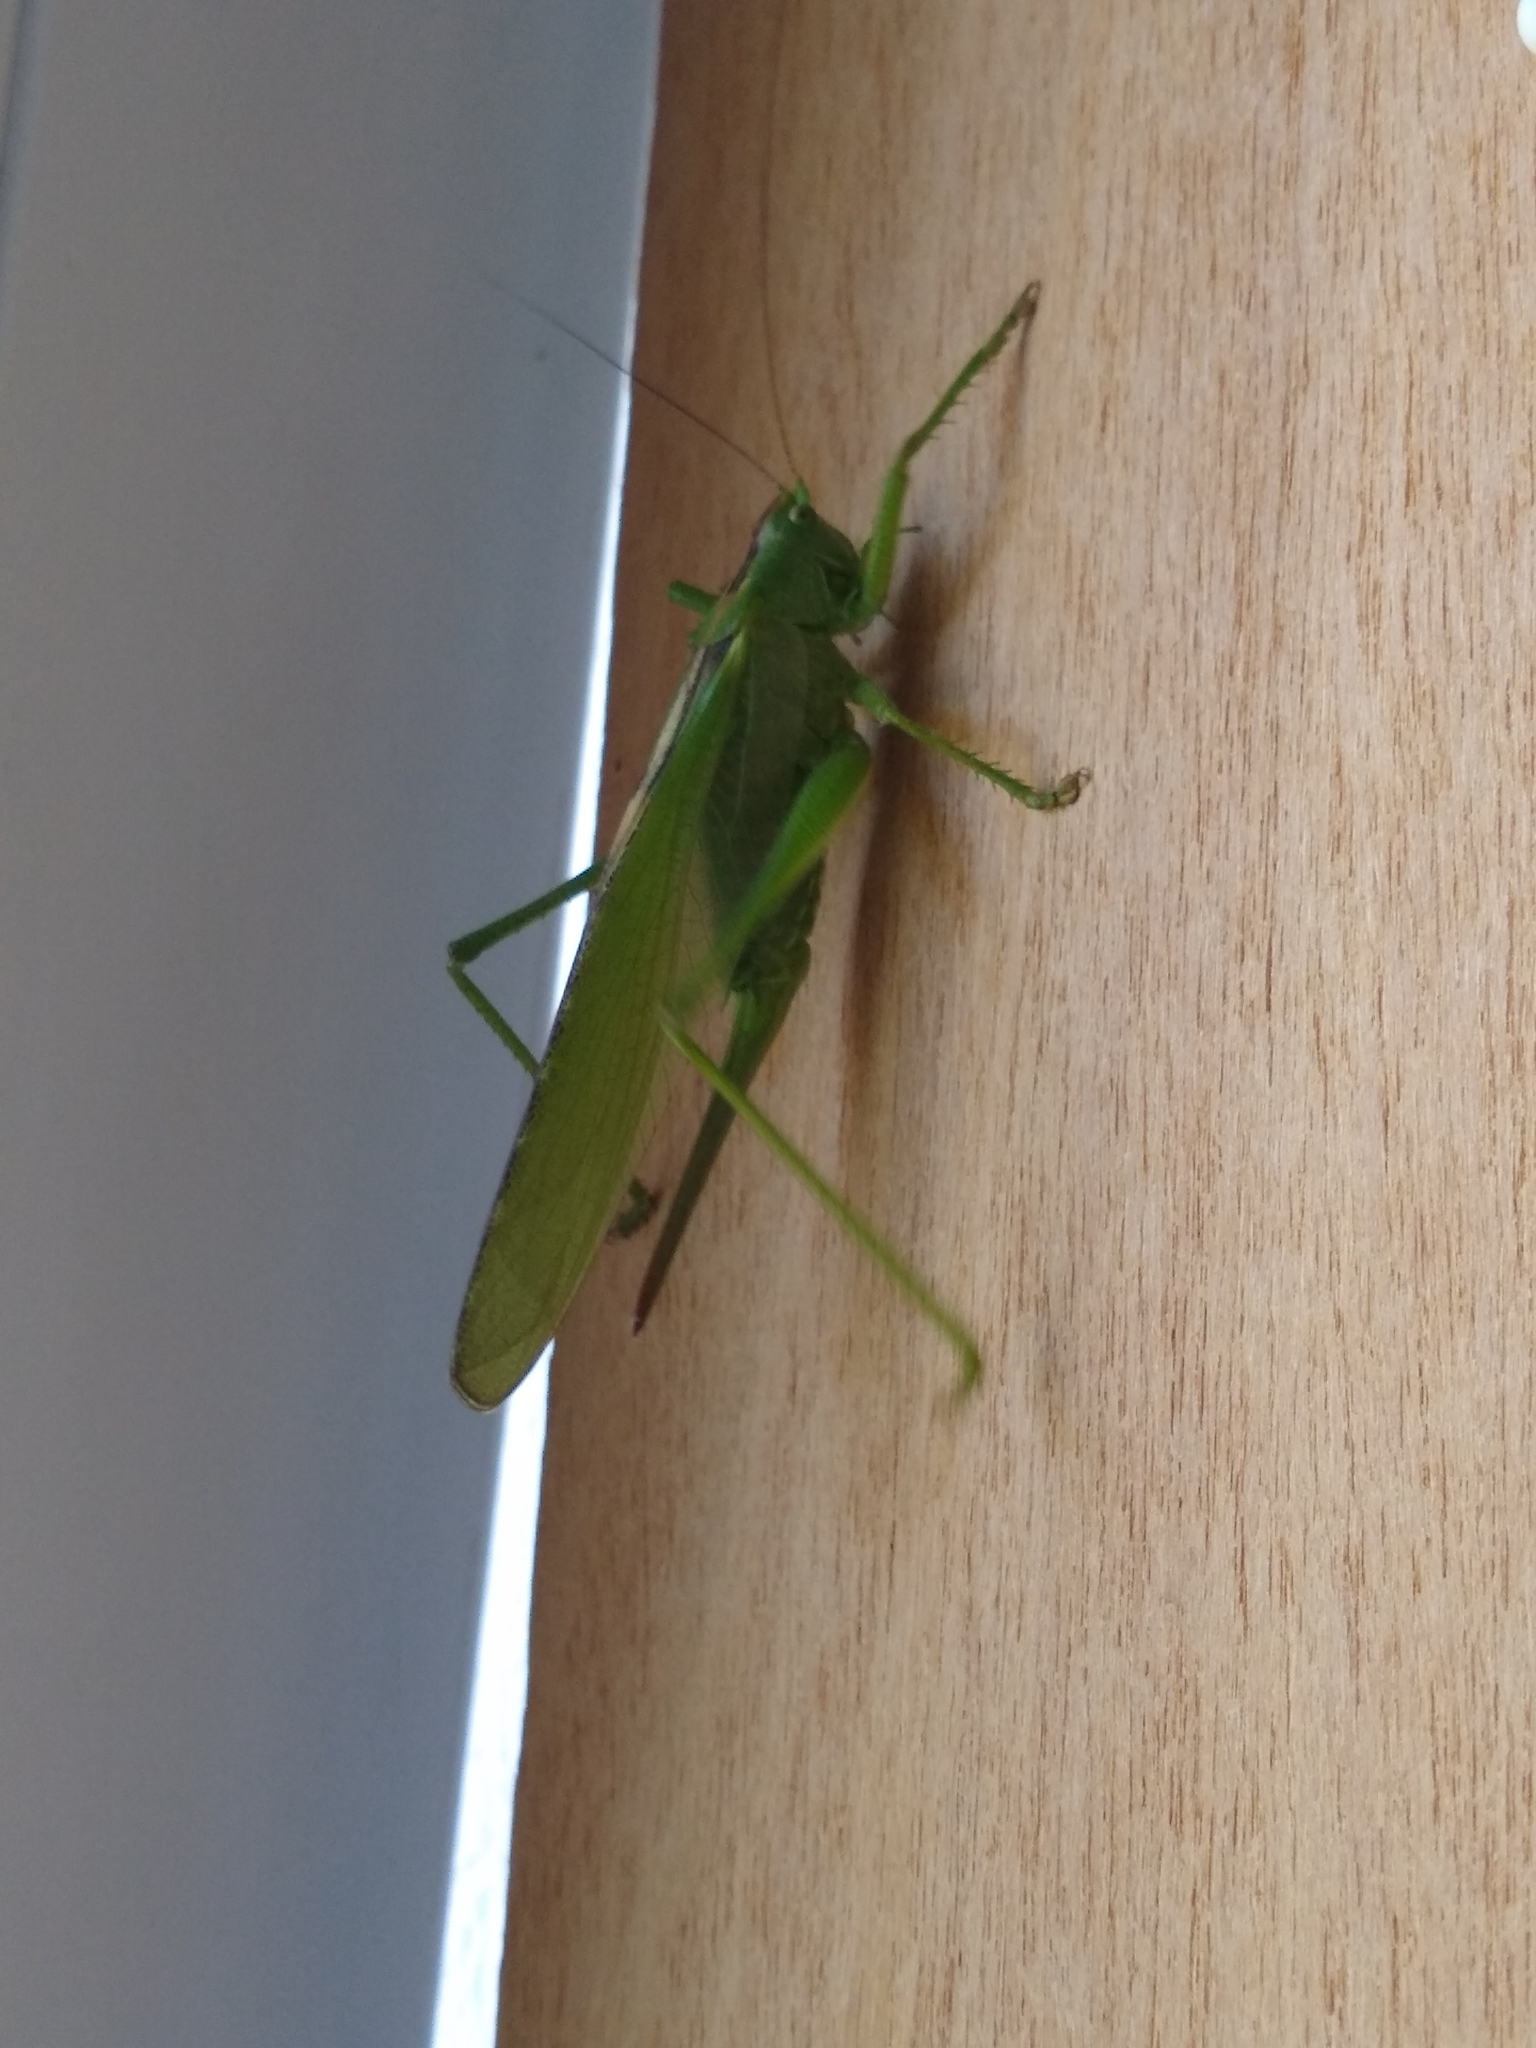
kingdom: Animalia
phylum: Arthropoda
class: Insecta
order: Orthoptera
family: Tettigoniidae
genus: Tettigonia
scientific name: Tettigonia viridissima
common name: Great green bush-cricket
